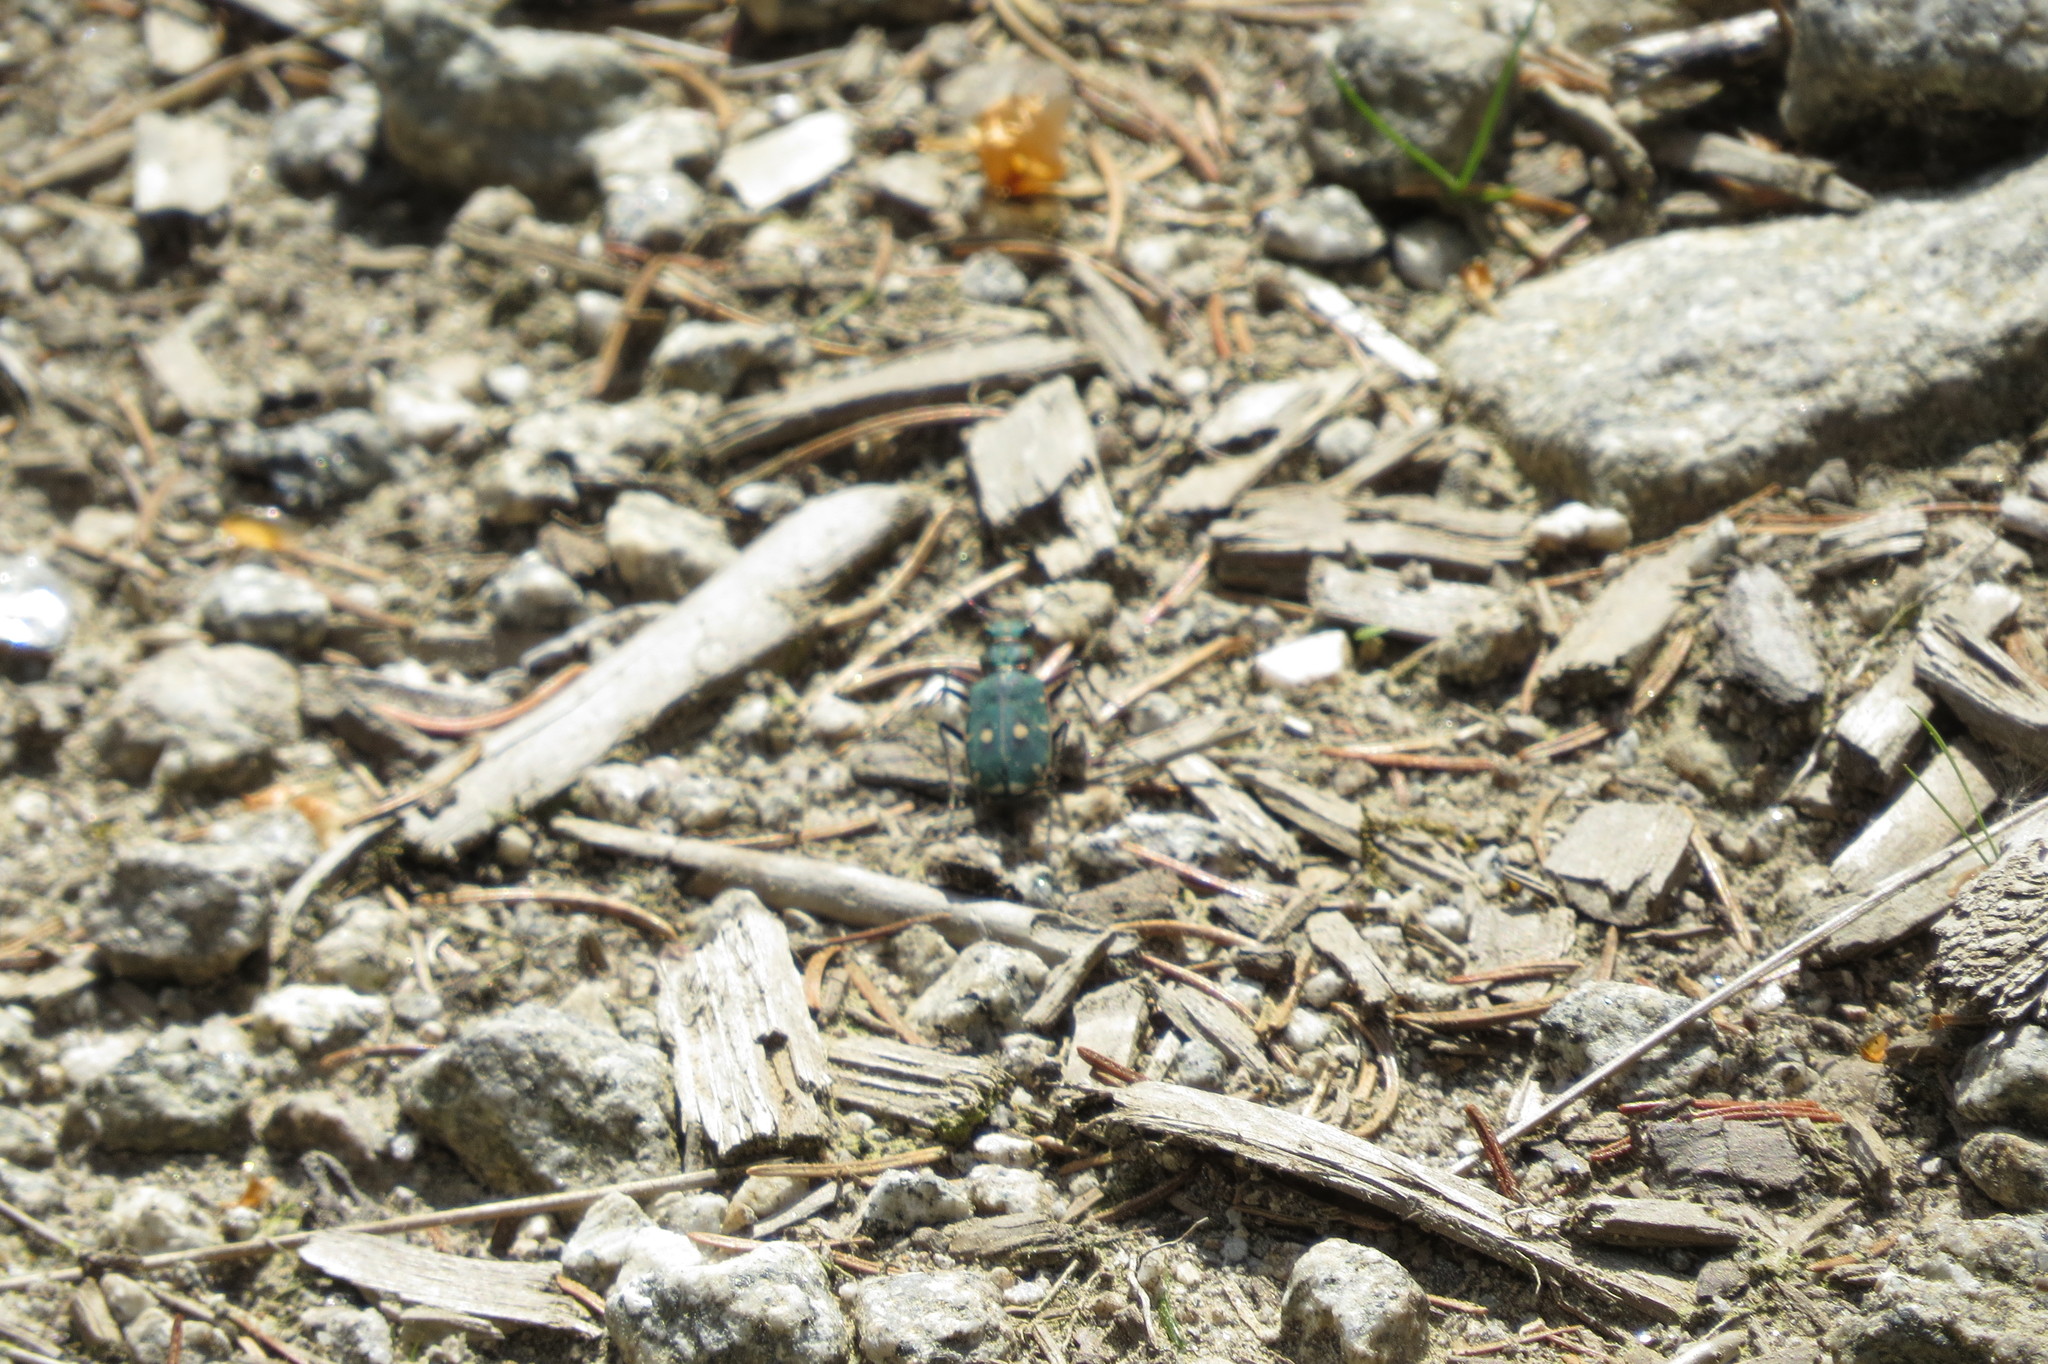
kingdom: Animalia
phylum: Arthropoda
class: Insecta
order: Coleoptera
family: Carabidae
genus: Cicindela
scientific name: Cicindela campestris
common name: Common tiger beetle
